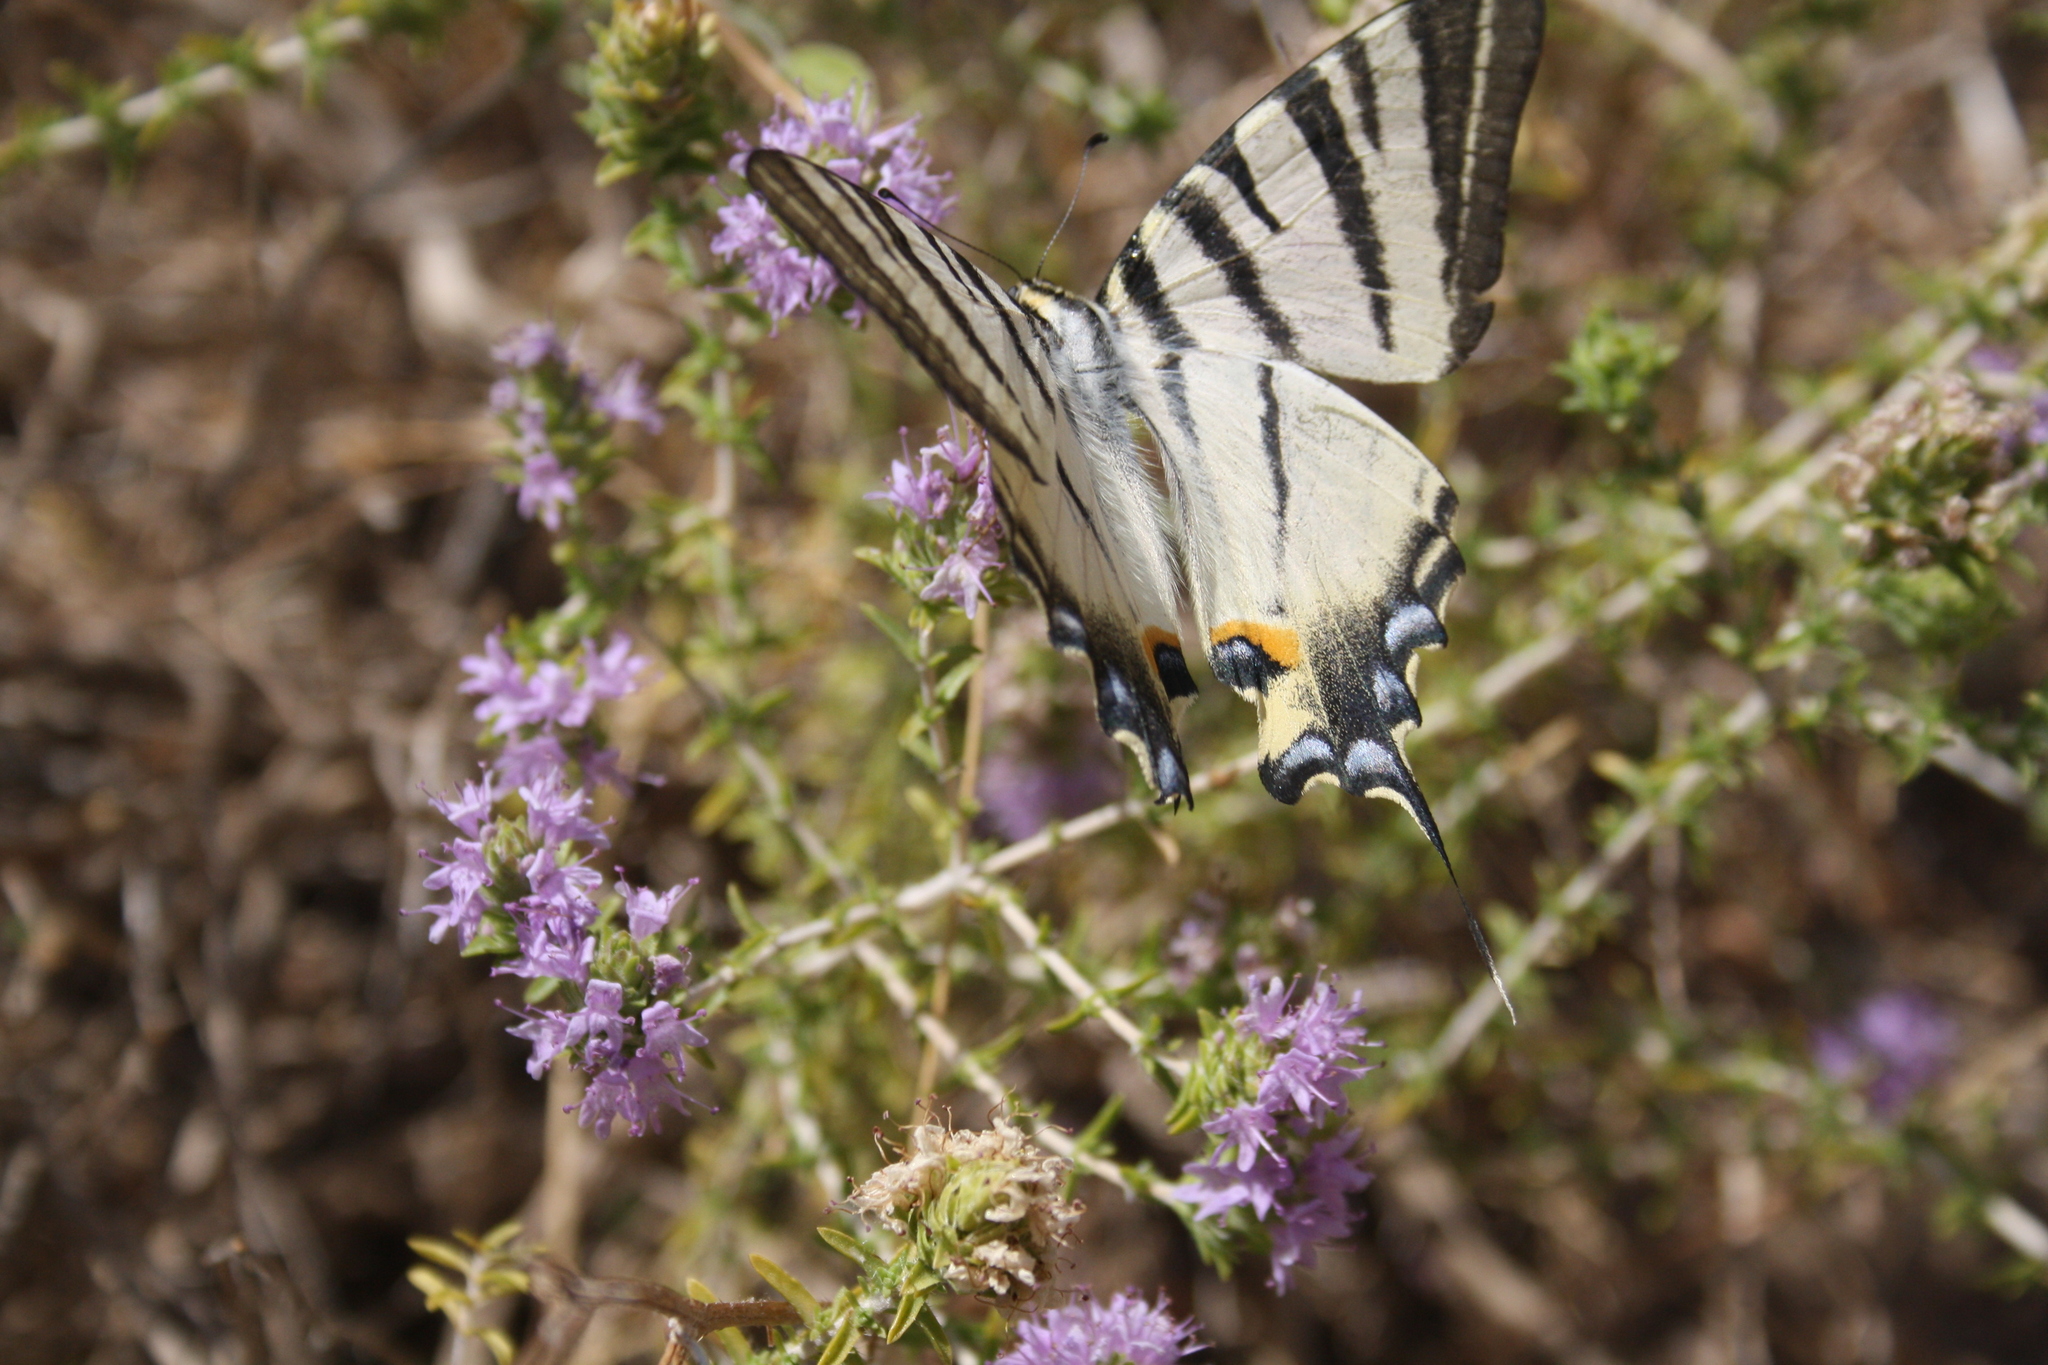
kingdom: Animalia
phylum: Arthropoda
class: Insecta
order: Lepidoptera
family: Papilionidae
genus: Iphiclides
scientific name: Iphiclides podalirius
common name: Scarce swallowtail
